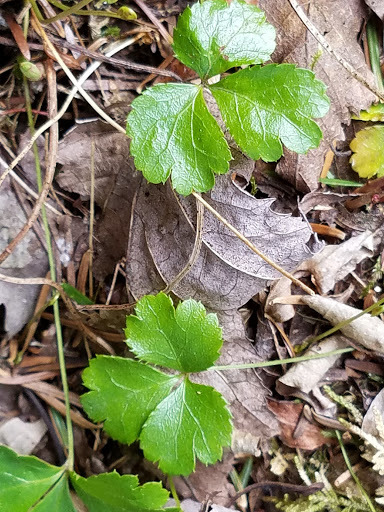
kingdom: Plantae
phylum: Tracheophyta
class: Magnoliopsida
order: Ranunculales
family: Ranunculaceae
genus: Coptis
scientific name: Coptis trifolia
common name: Canker-root
